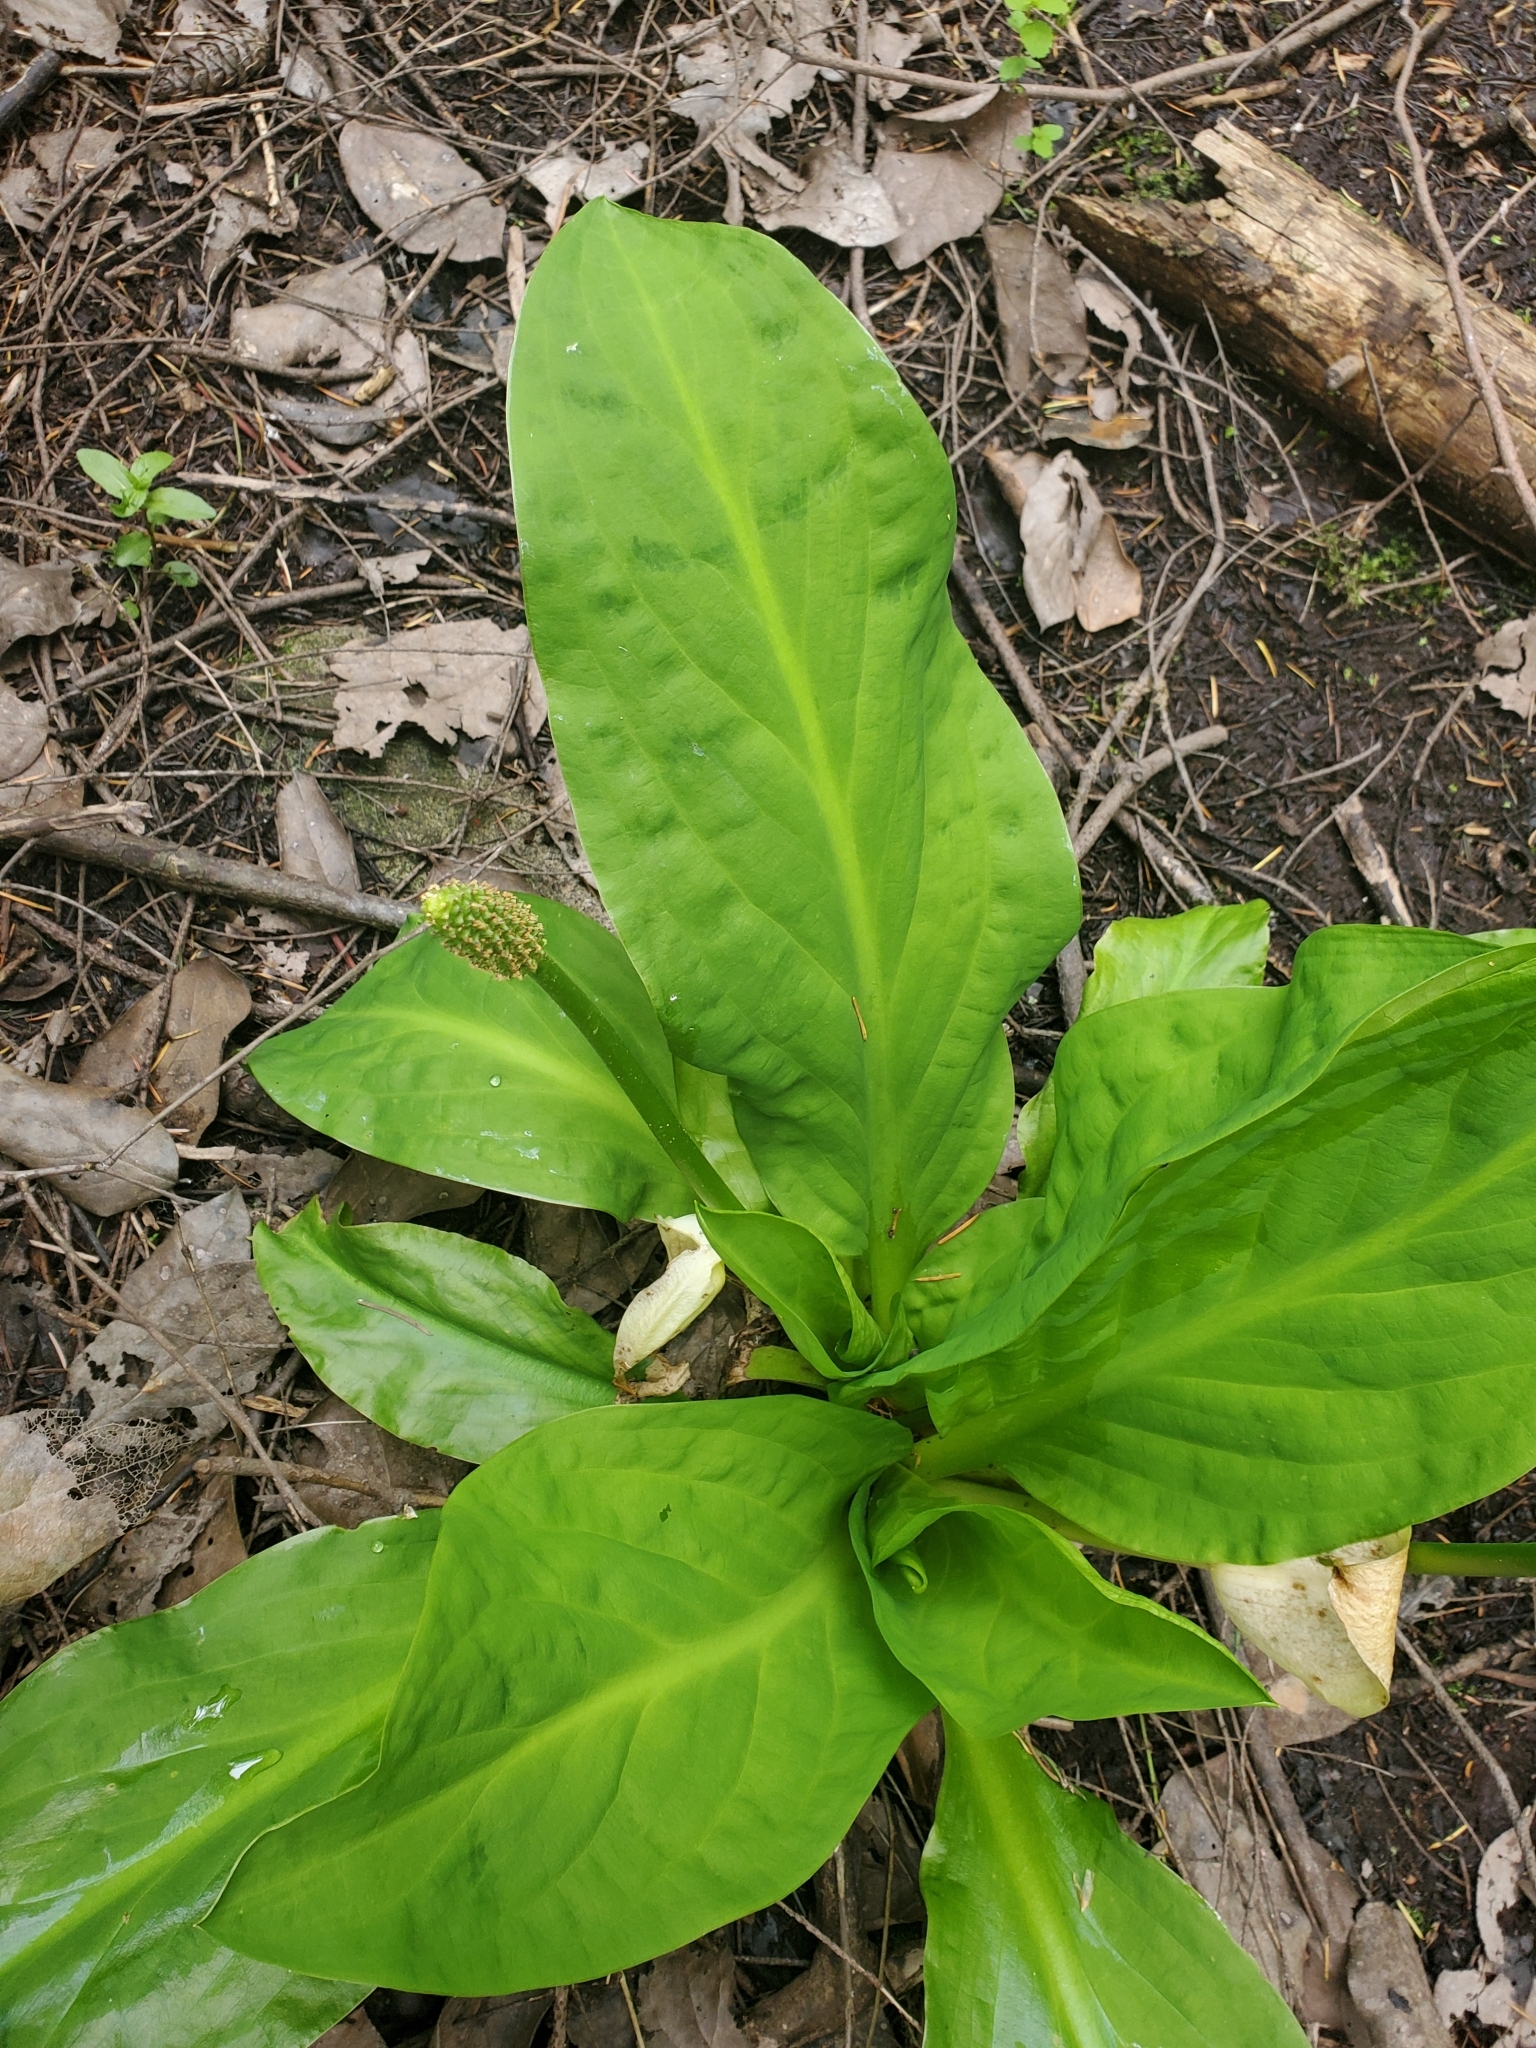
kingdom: Plantae
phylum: Tracheophyta
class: Liliopsida
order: Alismatales
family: Araceae
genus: Lysichiton
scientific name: Lysichiton americanus
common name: American skunk cabbage
